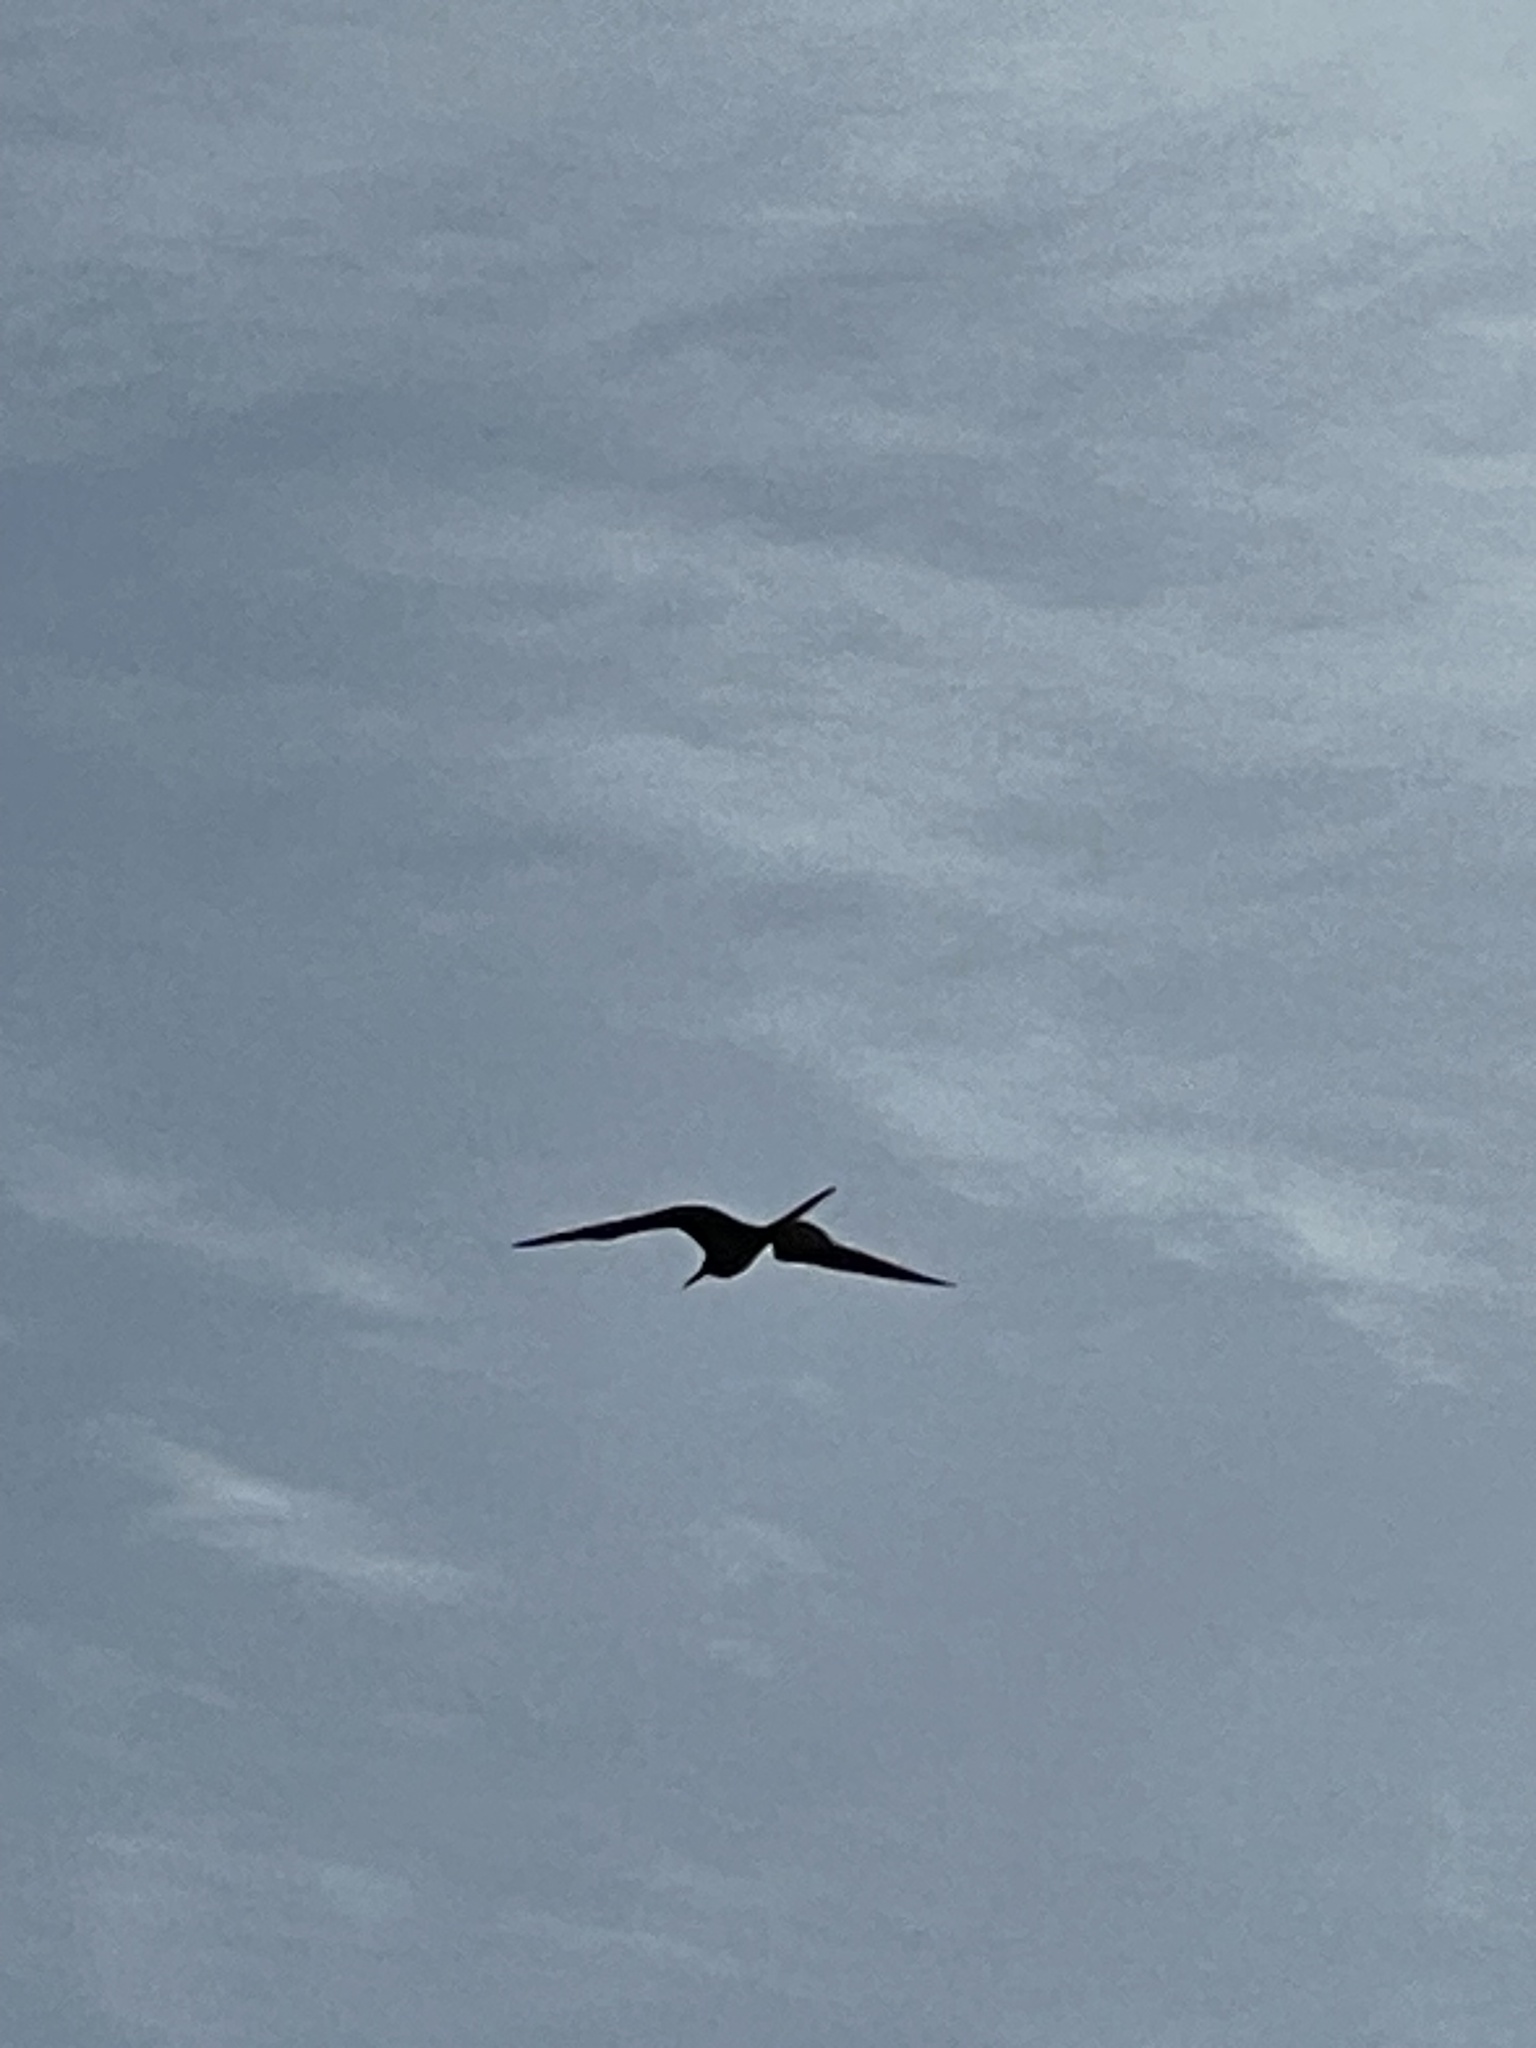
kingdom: Animalia
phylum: Chordata
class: Aves
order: Suliformes
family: Fregatidae
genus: Fregata
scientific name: Fregata magnificens
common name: Magnificent frigatebird
